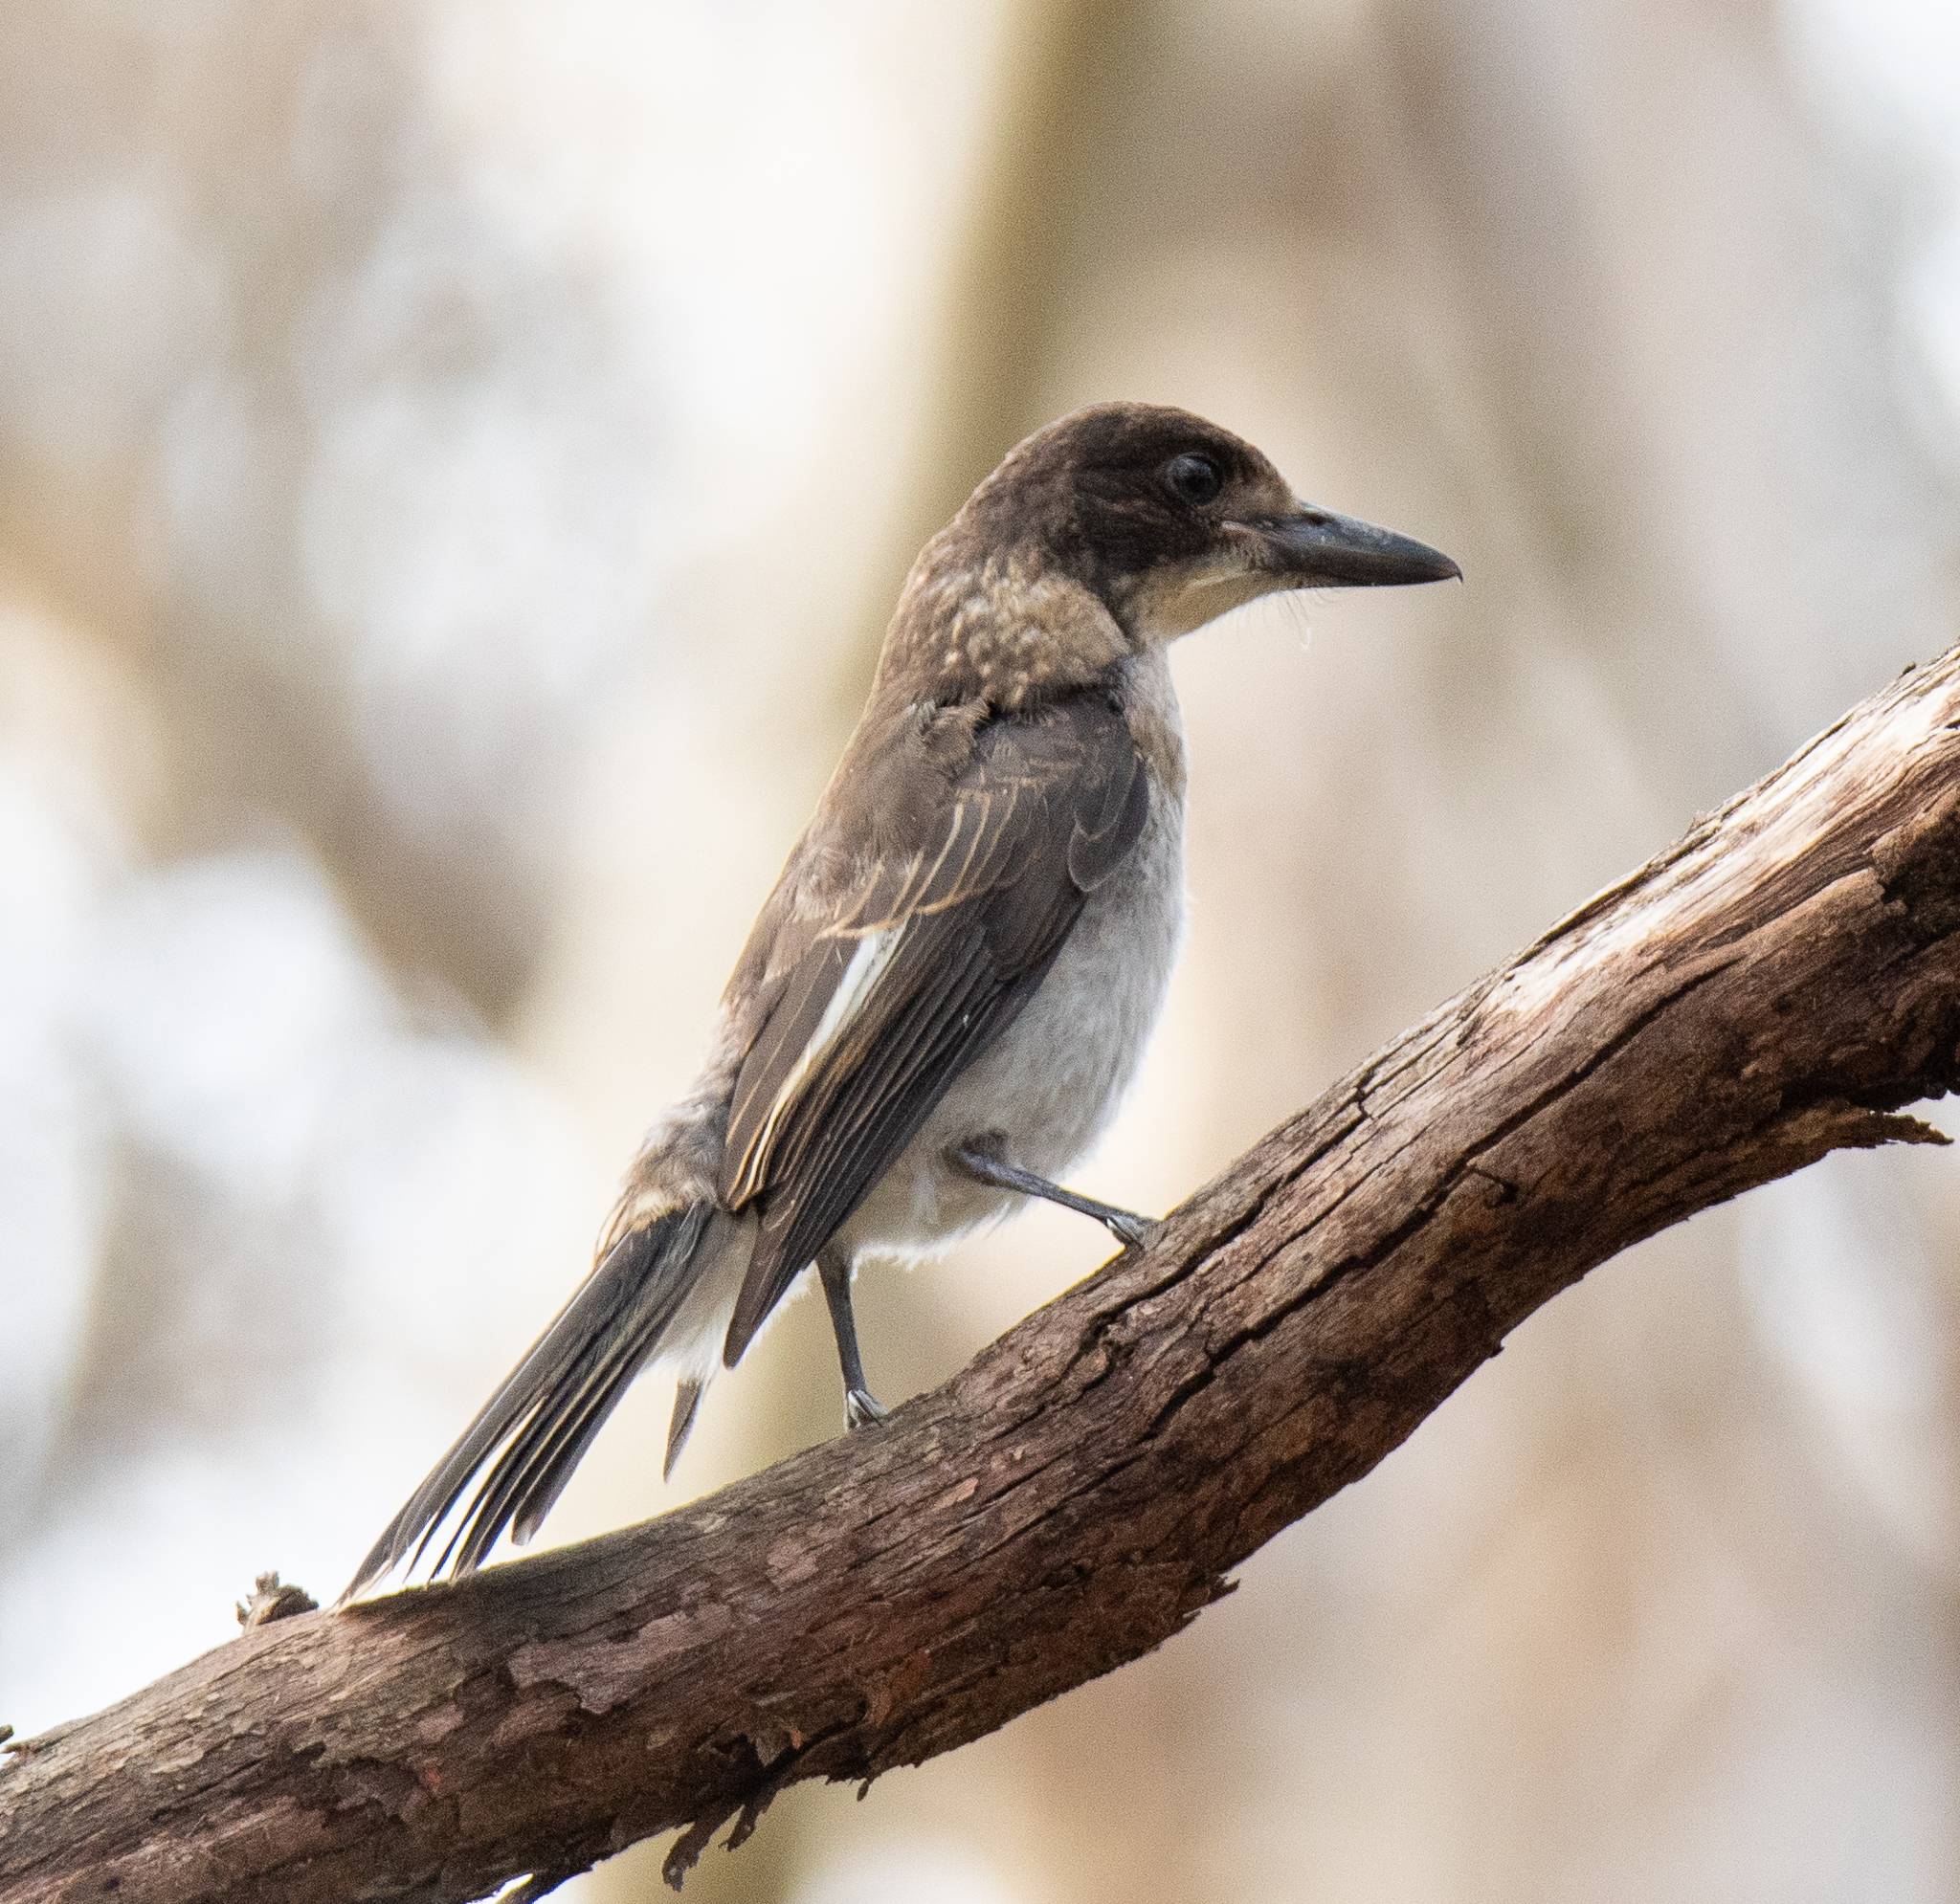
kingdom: Animalia
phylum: Chordata
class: Aves
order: Passeriformes
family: Cracticidae
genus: Cracticus
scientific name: Cracticus torquatus
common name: Grey butcherbird
